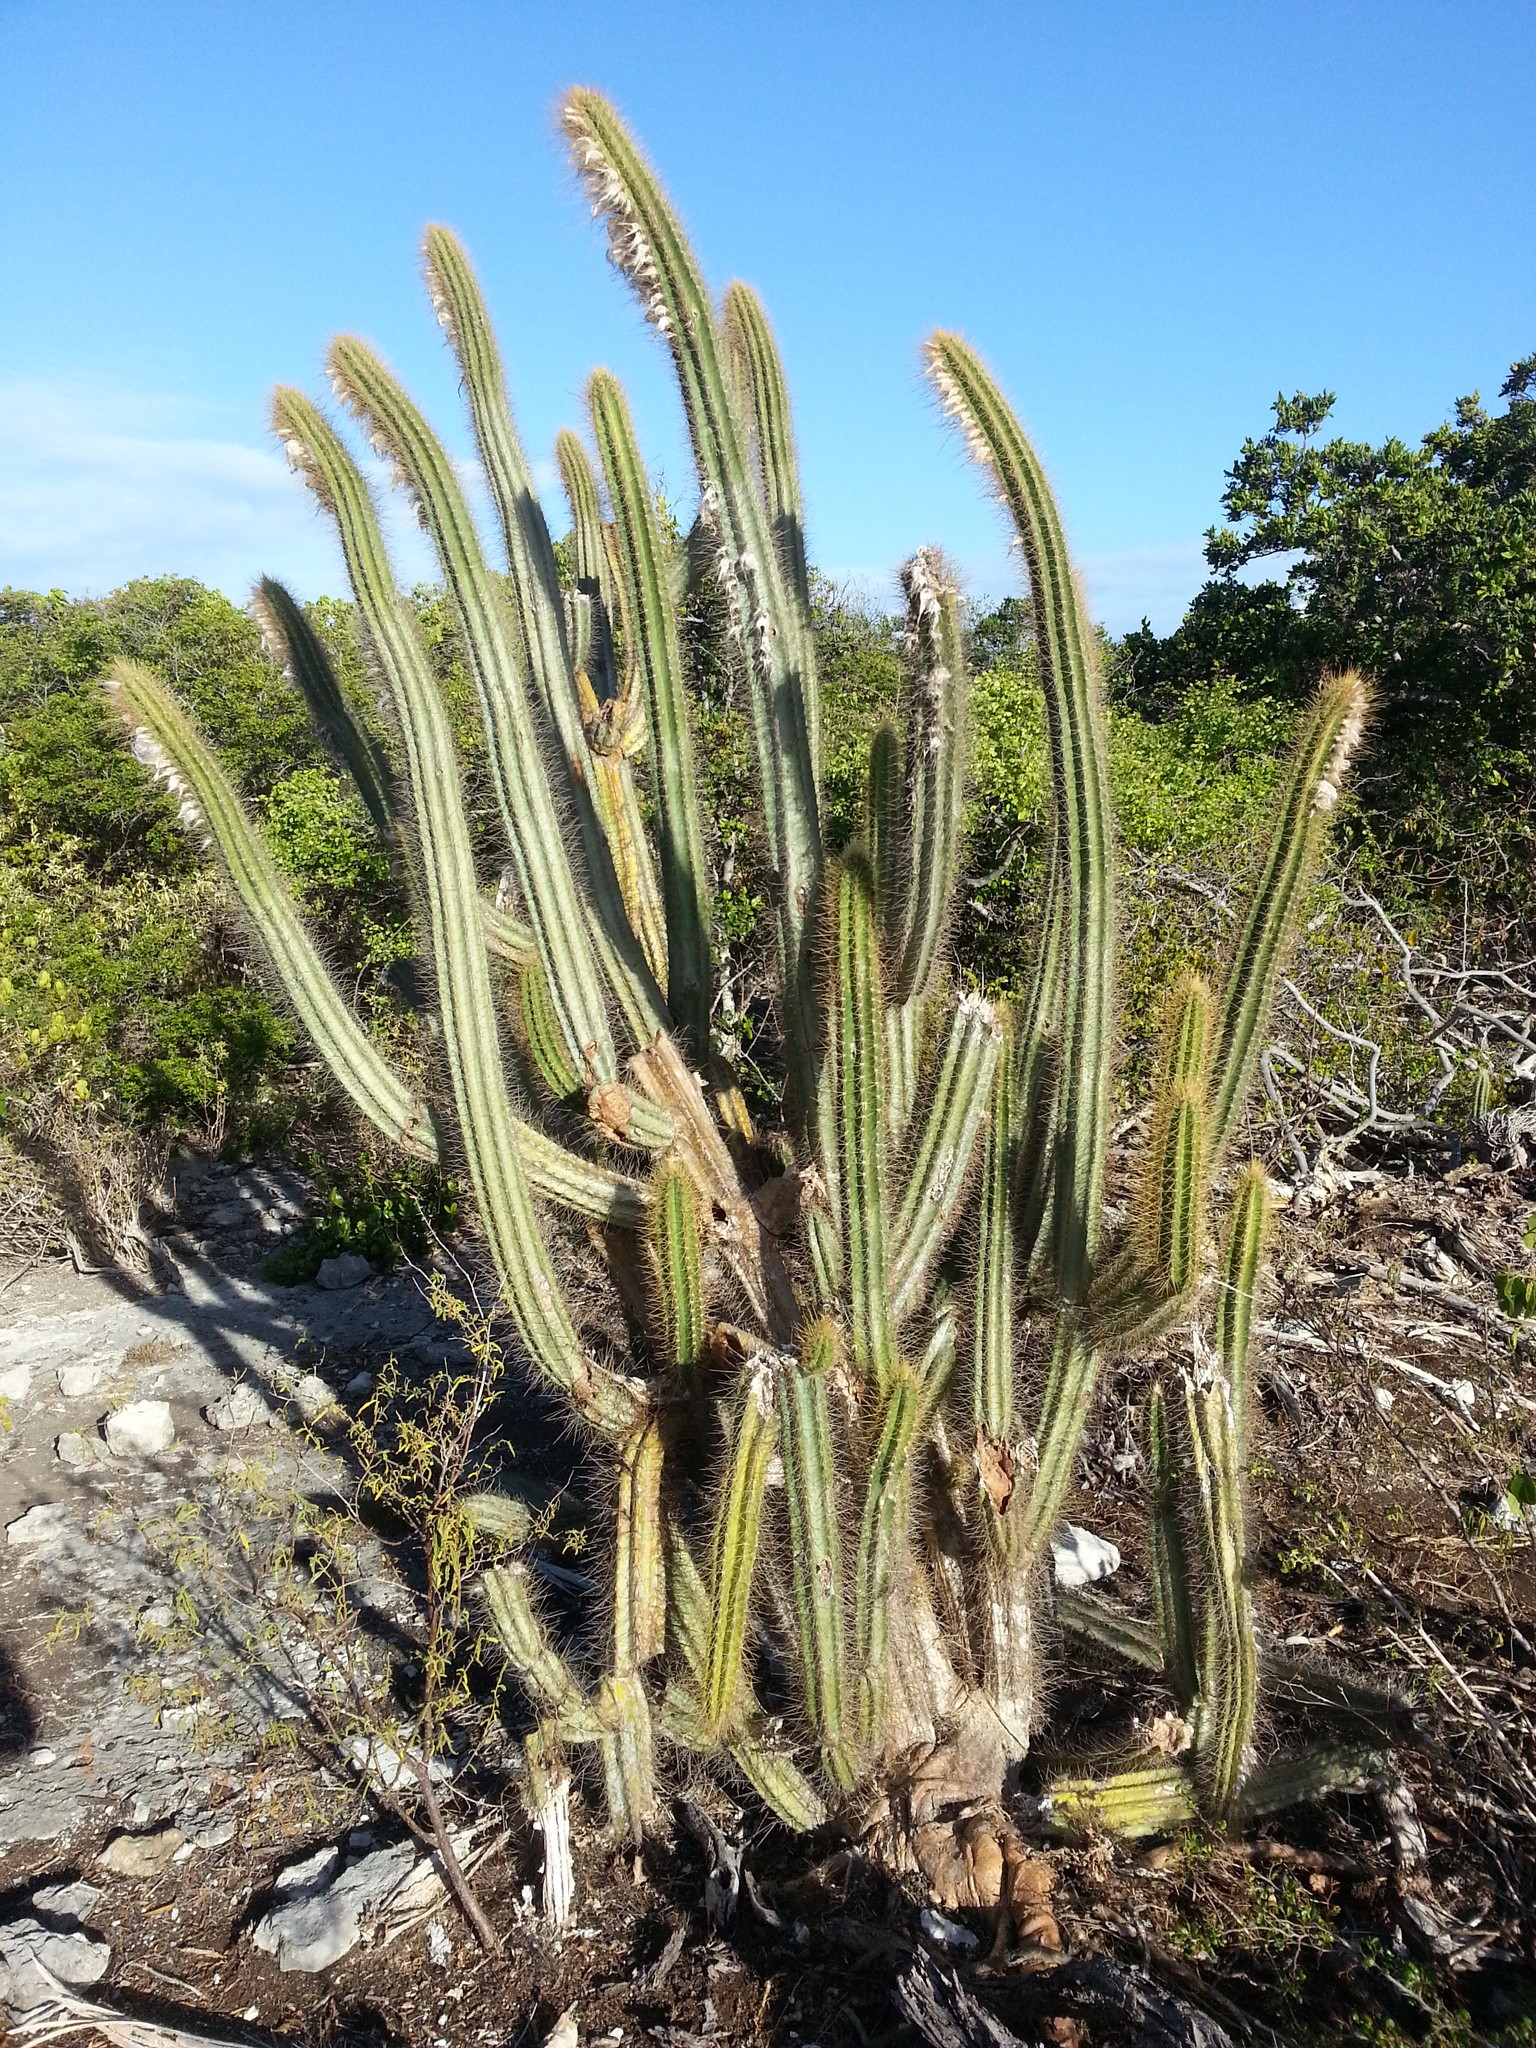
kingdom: Plantae
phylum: Tracheophyta
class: Magnoliopsida
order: Caryophyllales
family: Cactaceae
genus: Pilosocereus
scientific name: Pilosocereus curtisii
